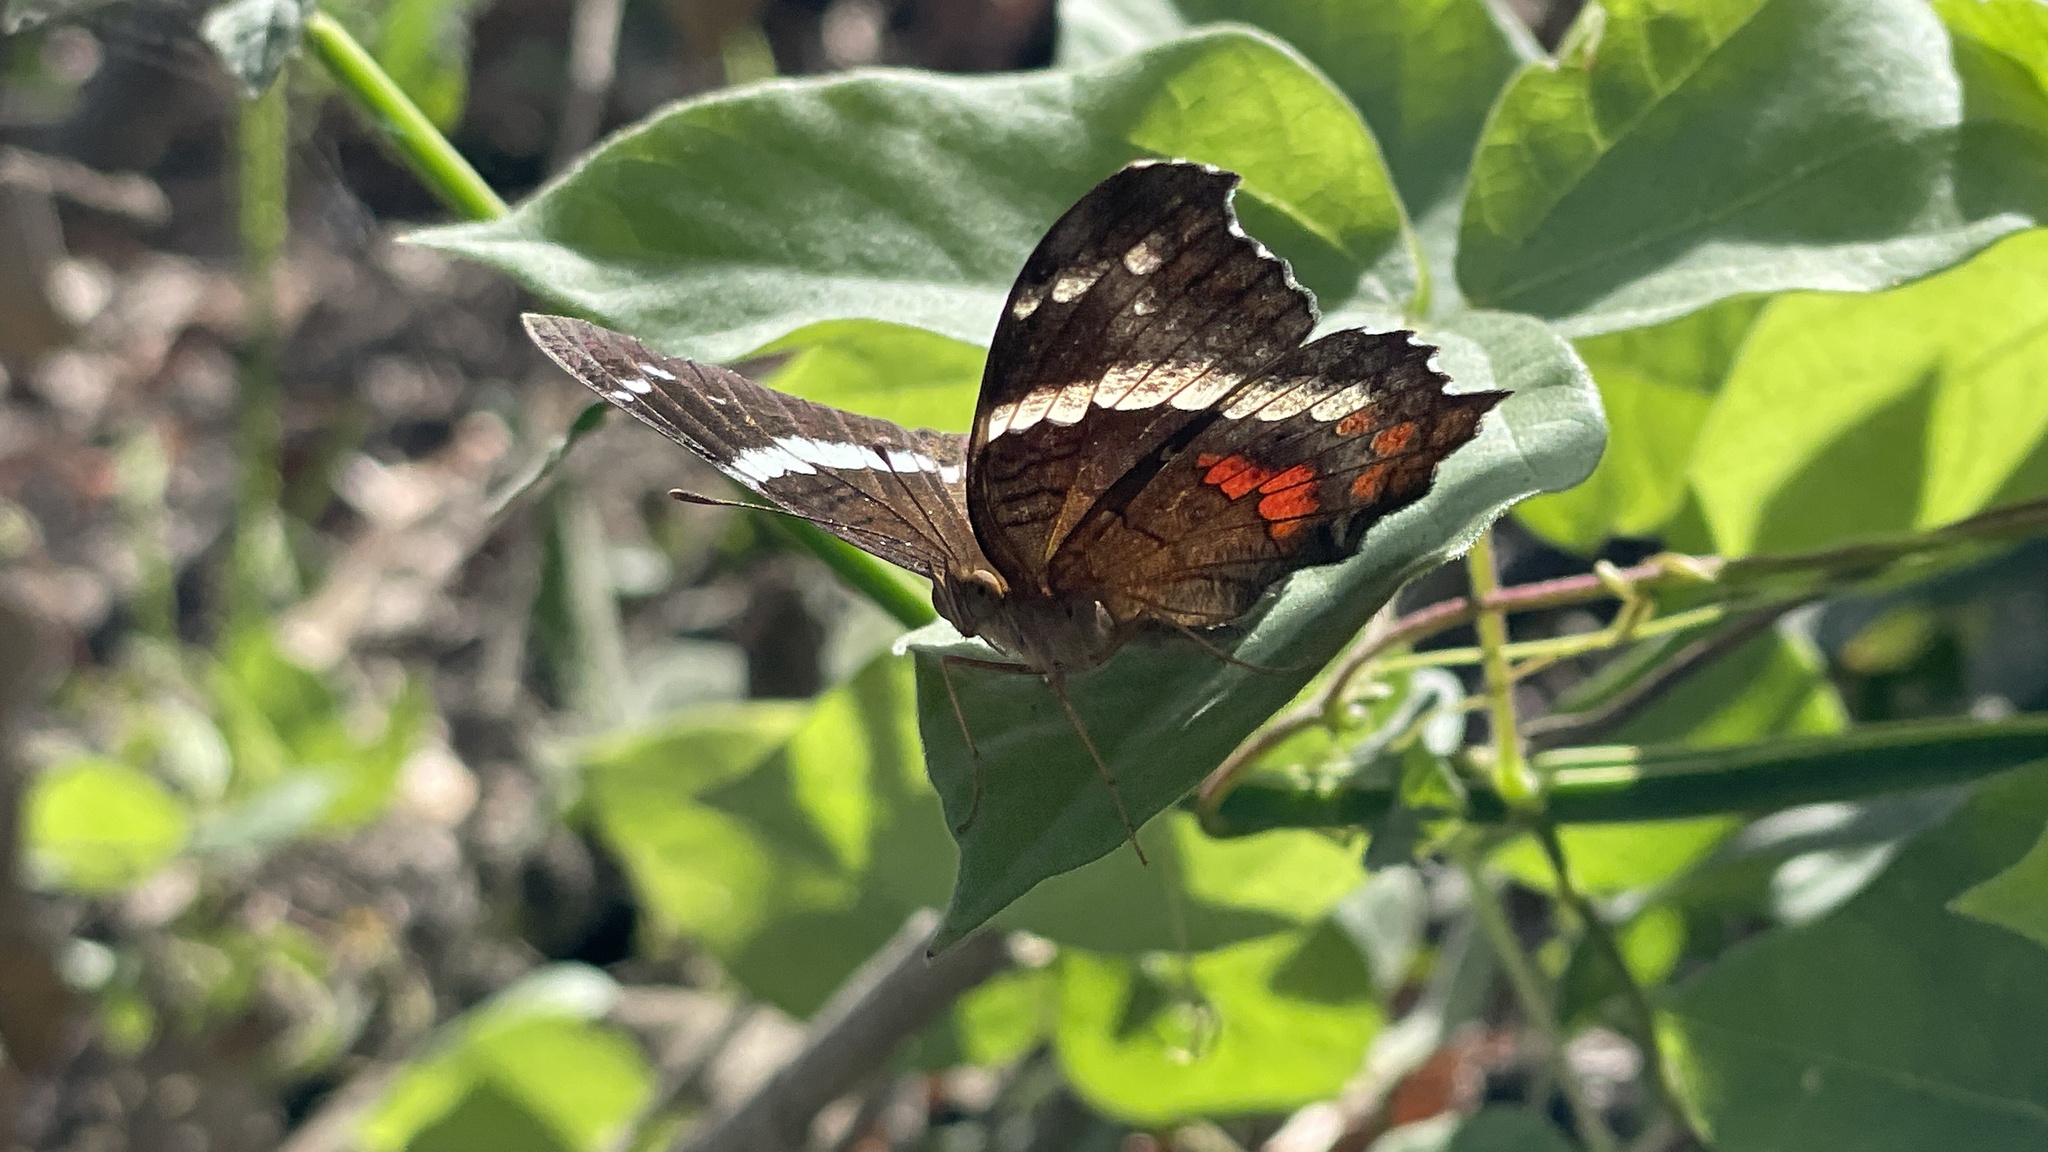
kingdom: Animalia
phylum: Arthropoda
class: Insecta
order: Lepidoptera
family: Nymphalidae
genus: Anartia
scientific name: Anartia fatima
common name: Banded peacock
